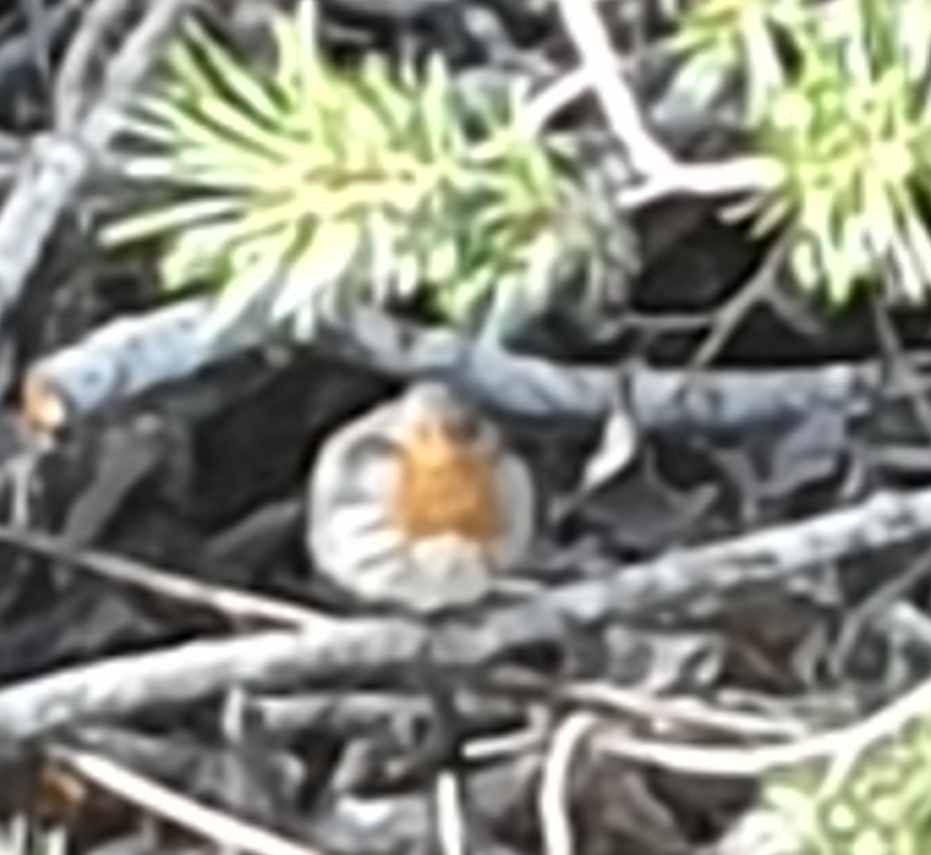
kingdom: Animalia
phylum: Chordata
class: Aves
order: Passeriformes
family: Muscicapidae
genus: Erithacus
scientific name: Erithacus rubecula
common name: European robin
